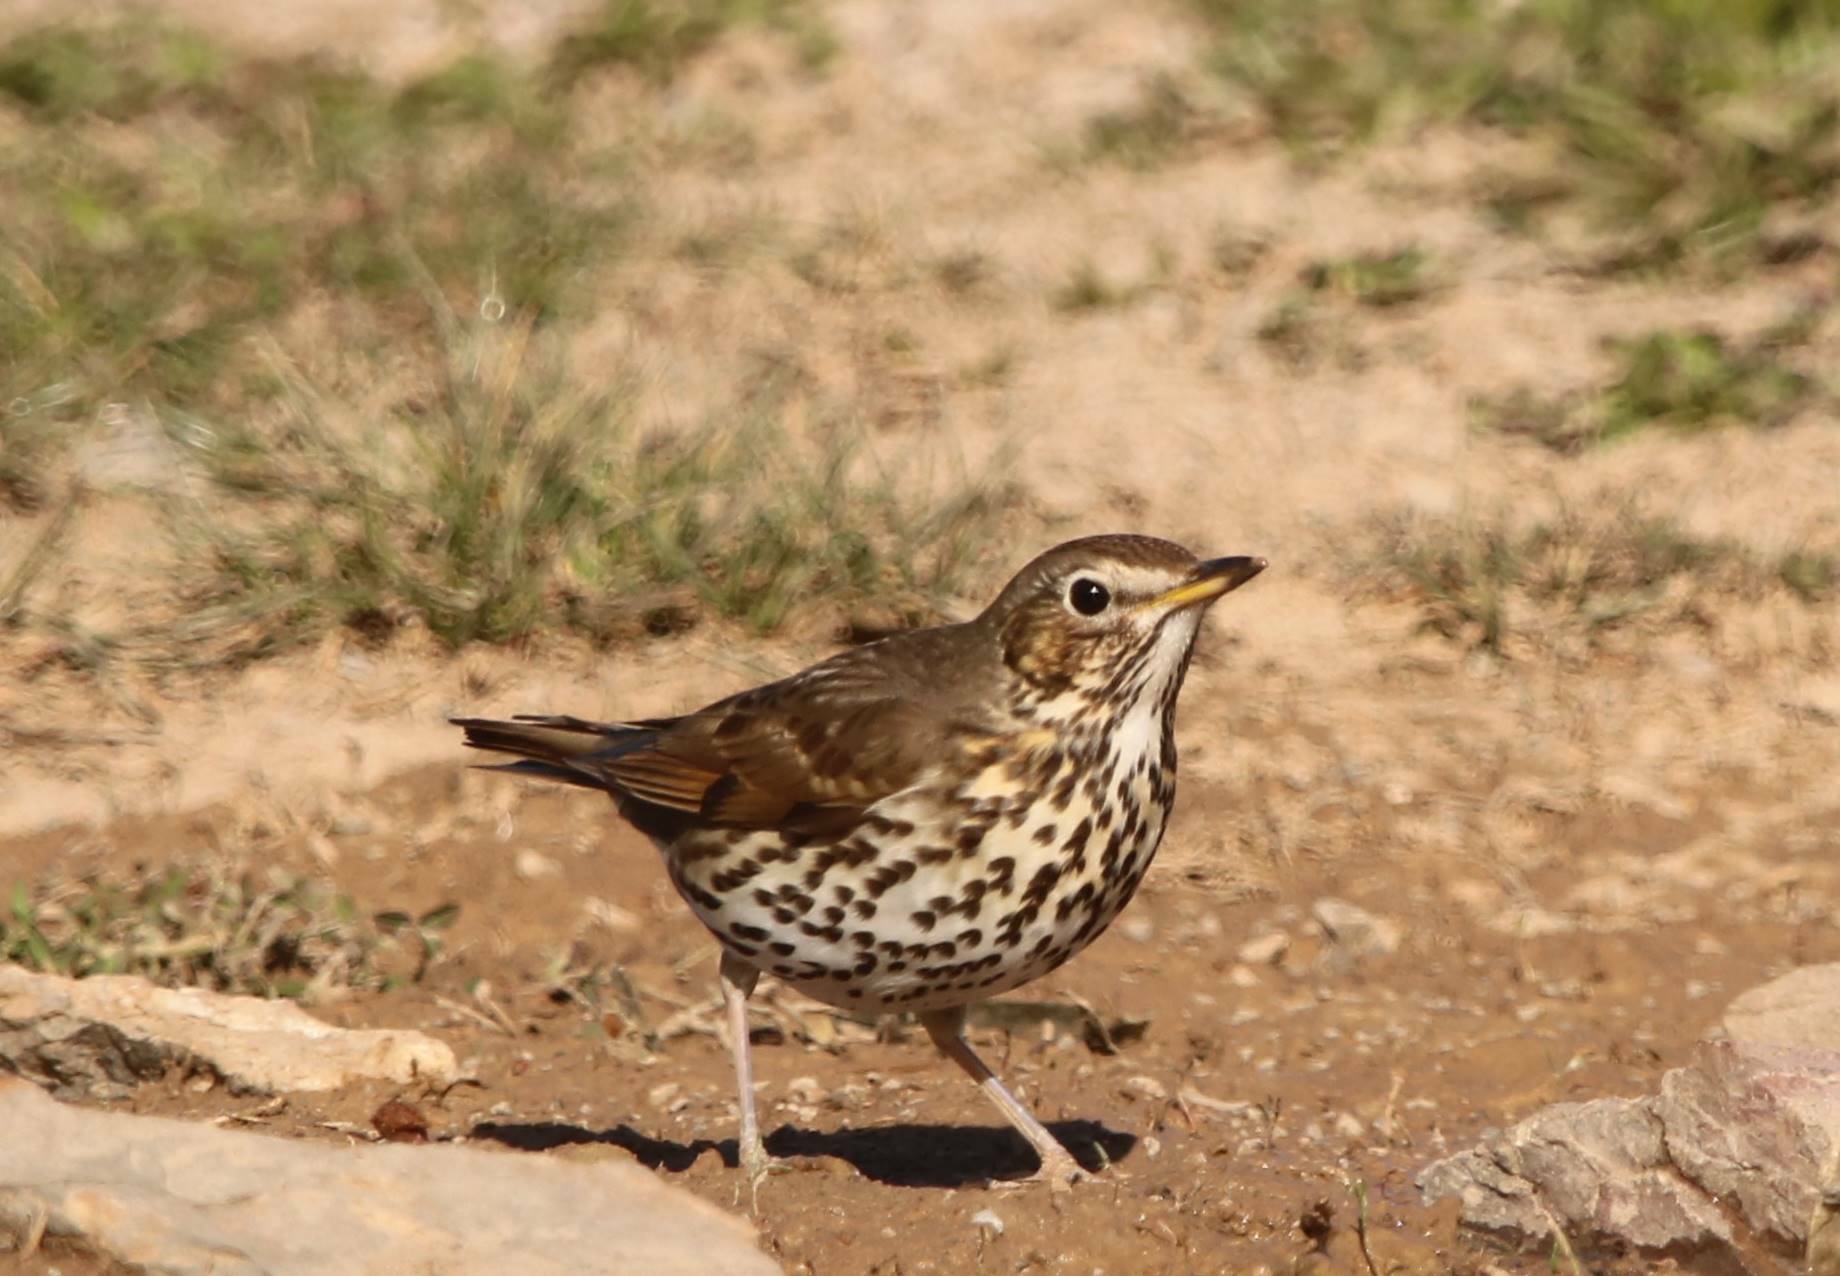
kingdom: Animalia
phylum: Chordata
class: Aves
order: Passeriformes
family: Turdidae
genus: Turdus
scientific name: Turdus philomelos
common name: Song thrush
